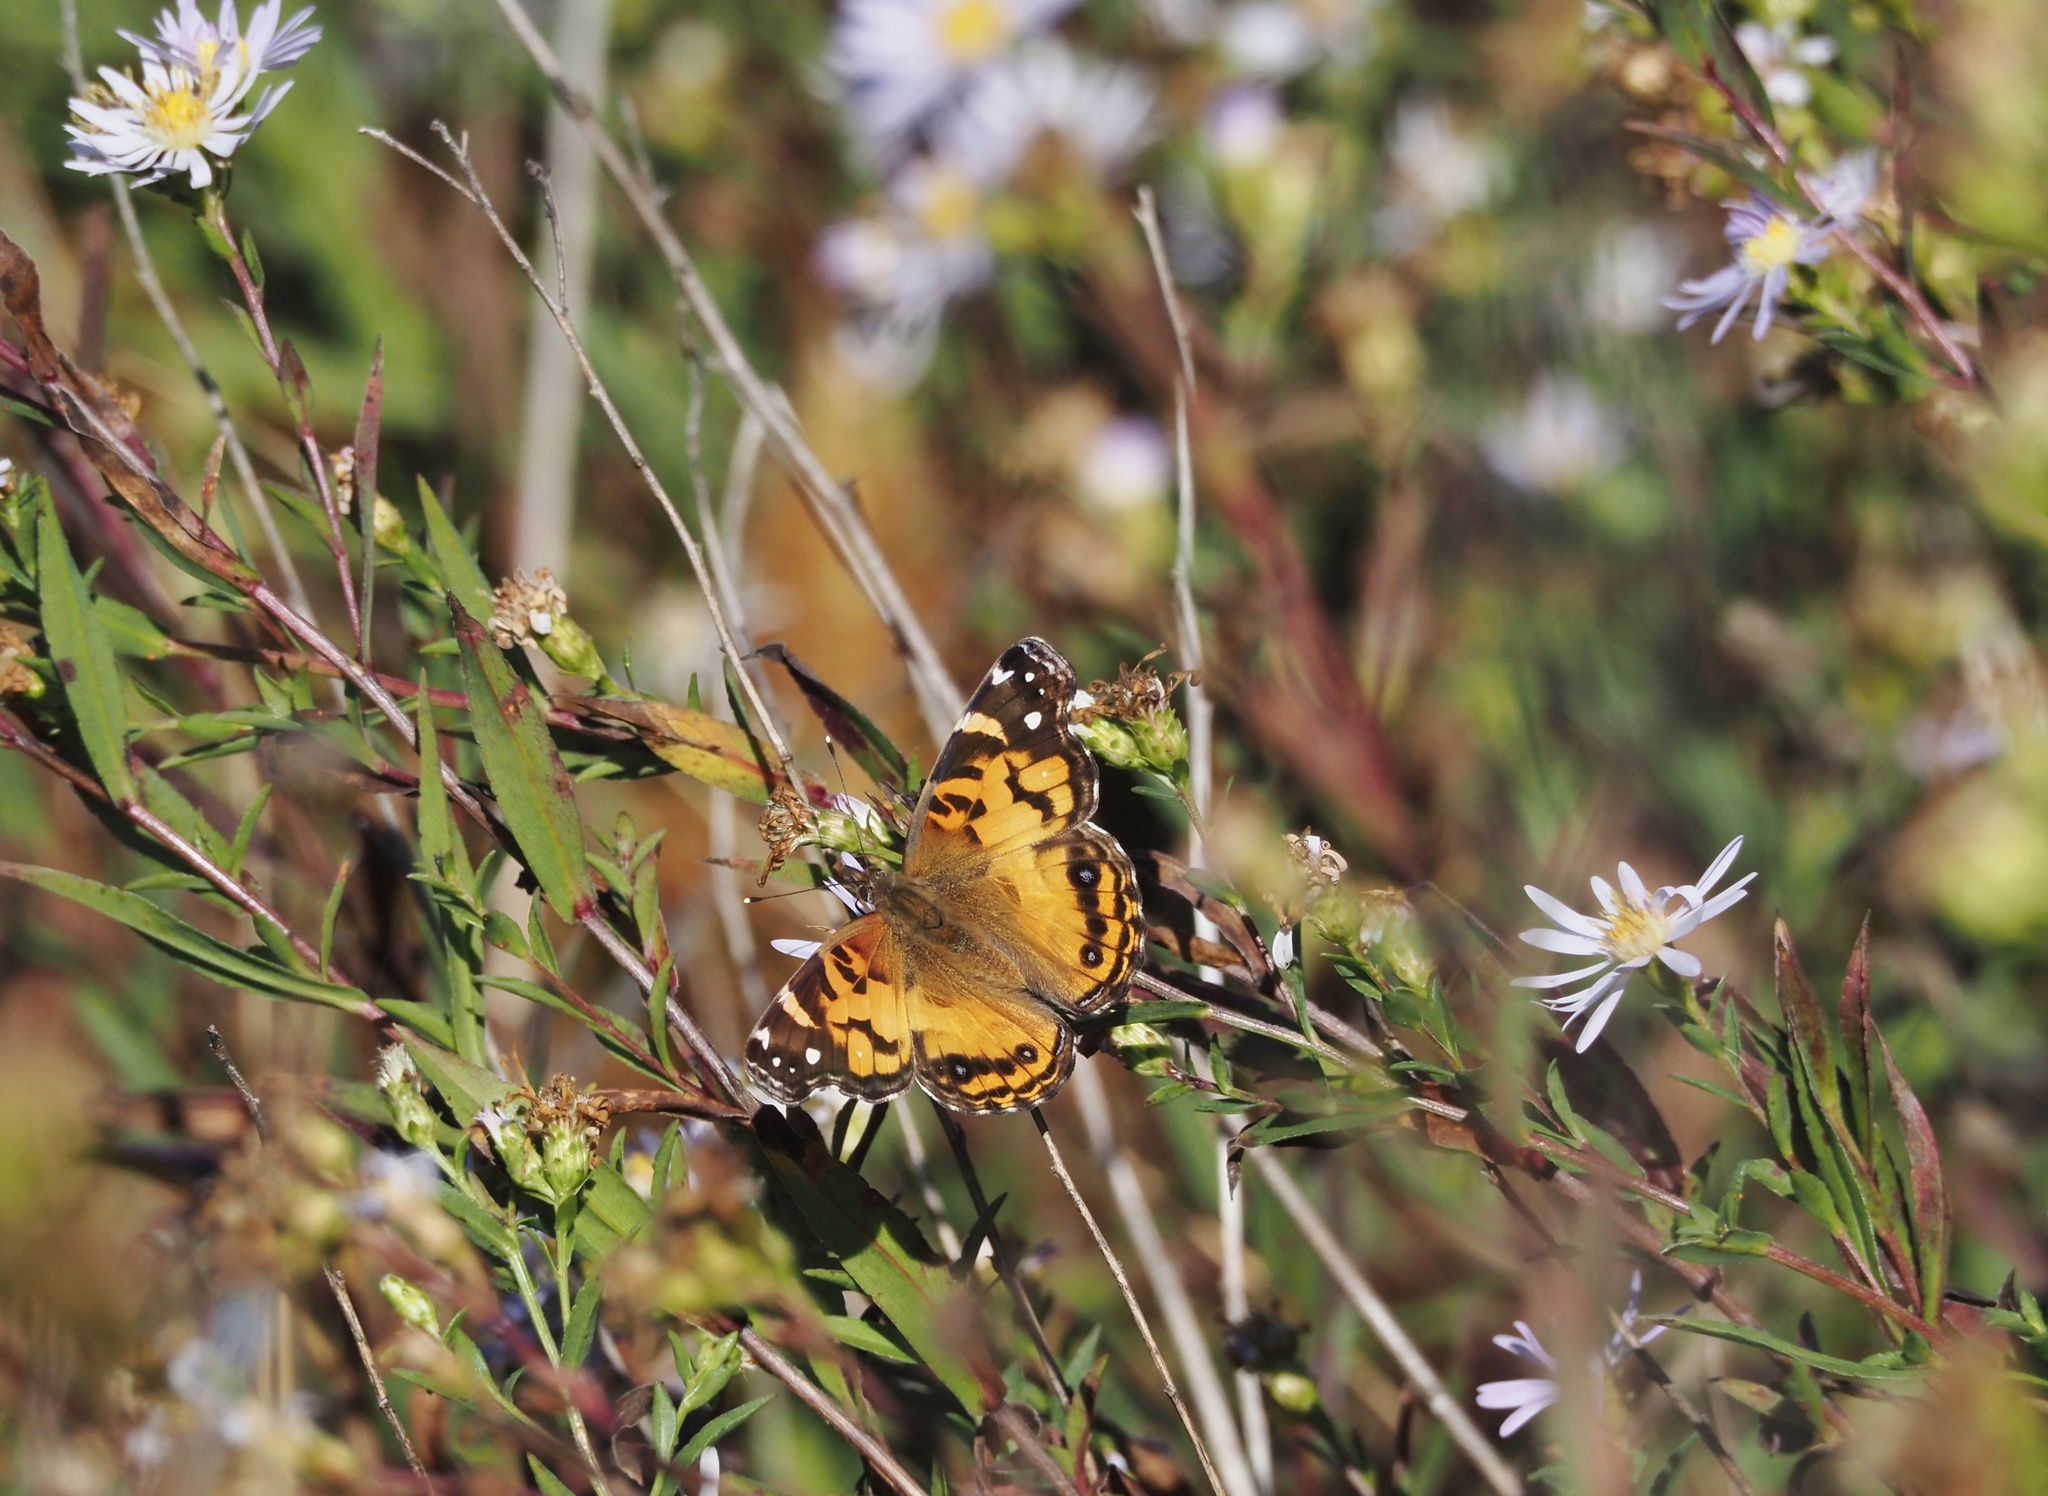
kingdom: Animalia
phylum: Arthropoda
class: Insecta
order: Lepidoptera
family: Nymphalidae
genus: Vanessa
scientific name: Vanessa virginiensis
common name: American lady
